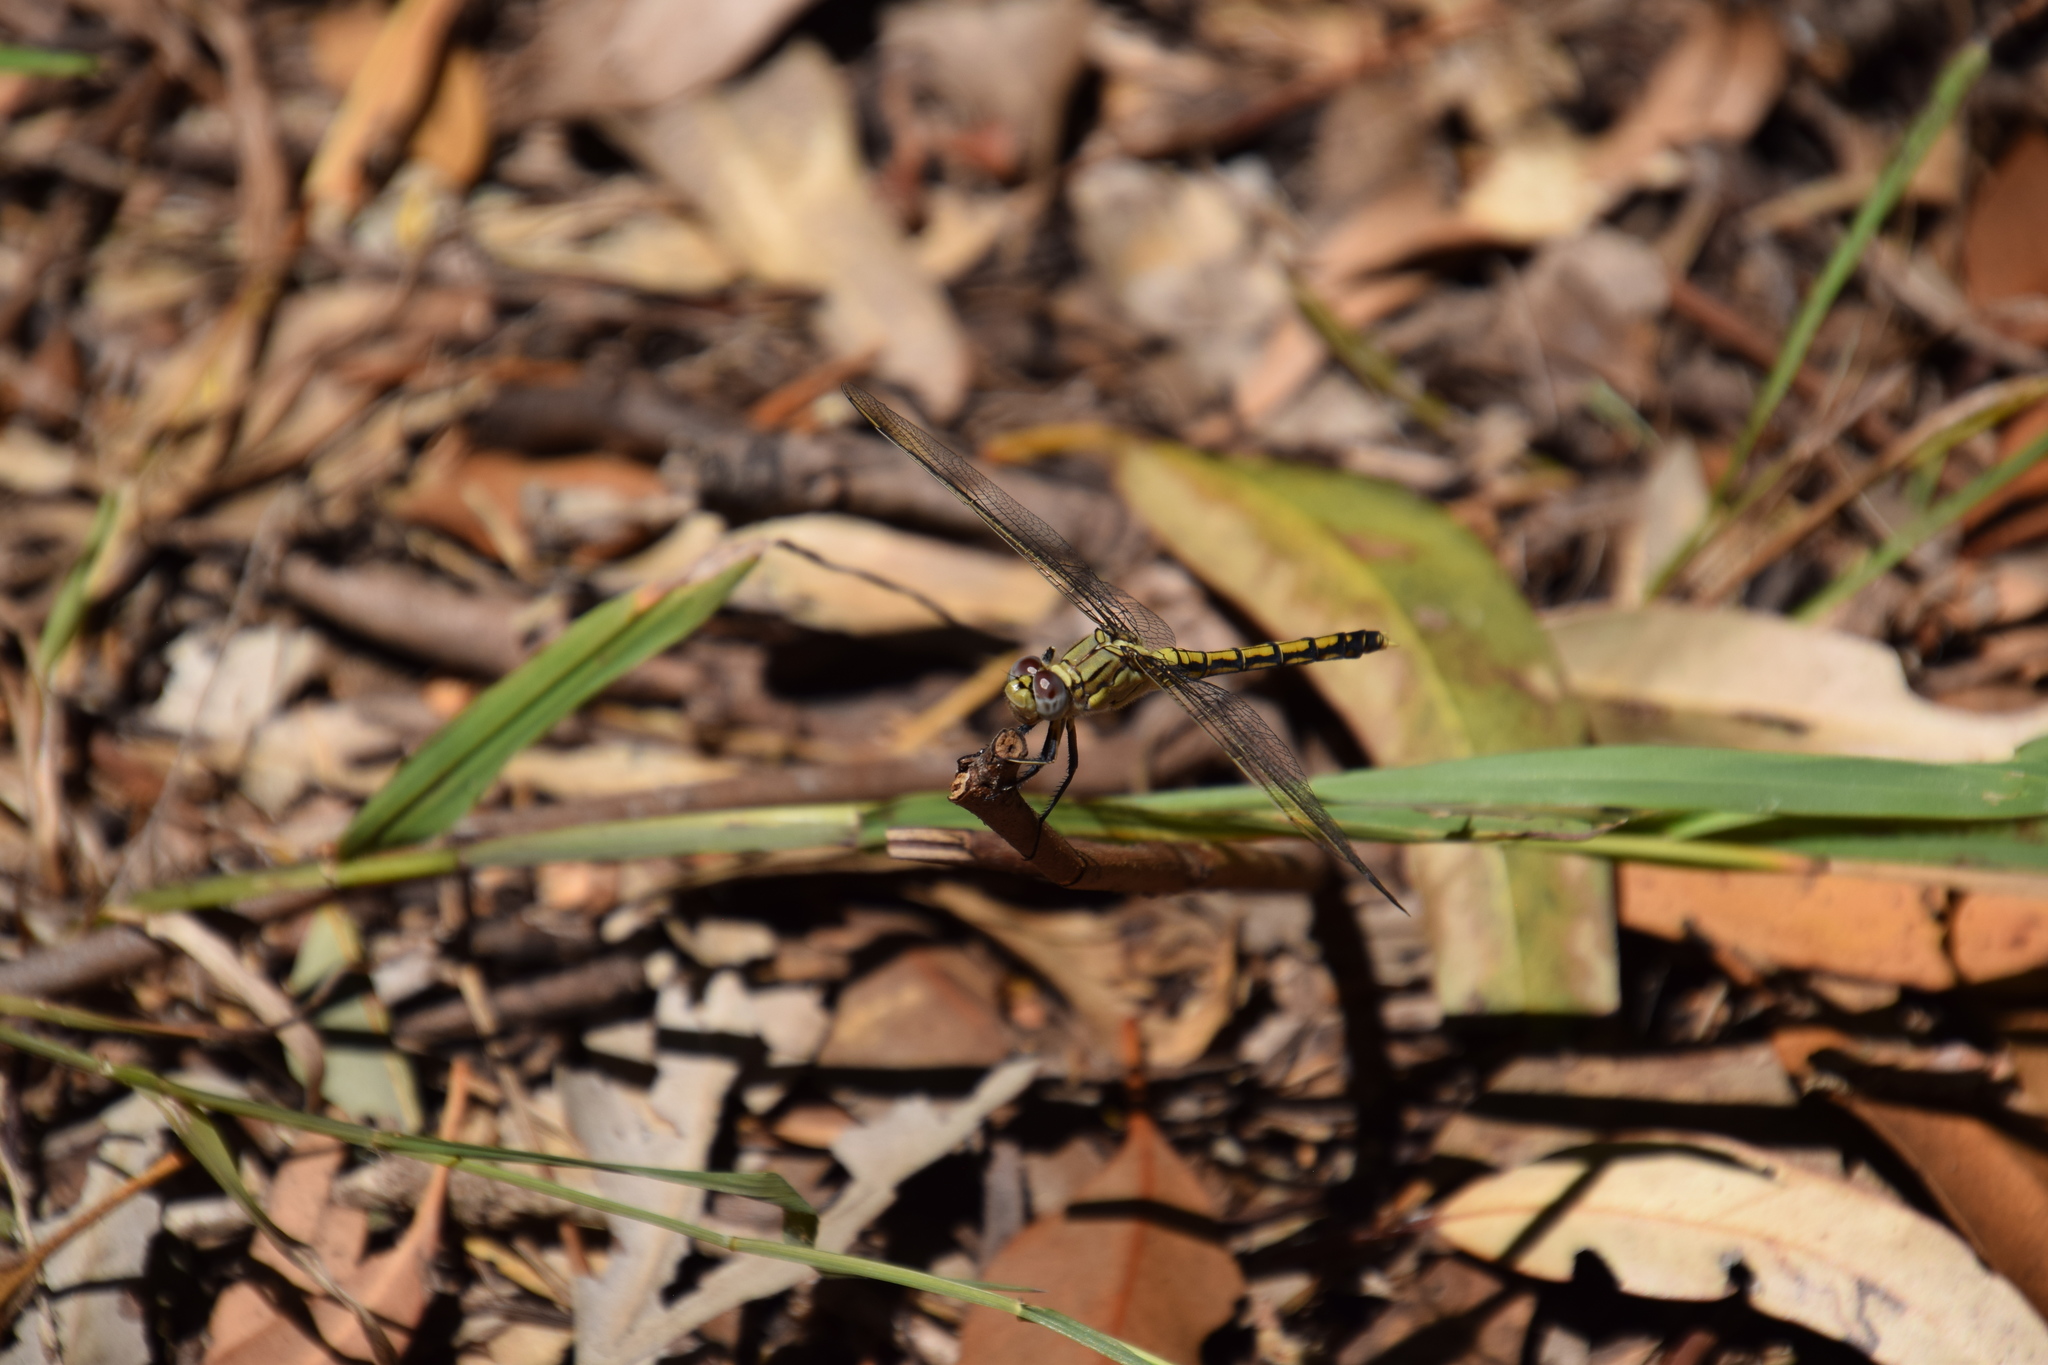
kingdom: Animalia
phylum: Arthropoda
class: Insecta
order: Odonata
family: Libellulidae
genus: Orthetrum
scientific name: Orthetrum caledonicum
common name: Blue skimmer
